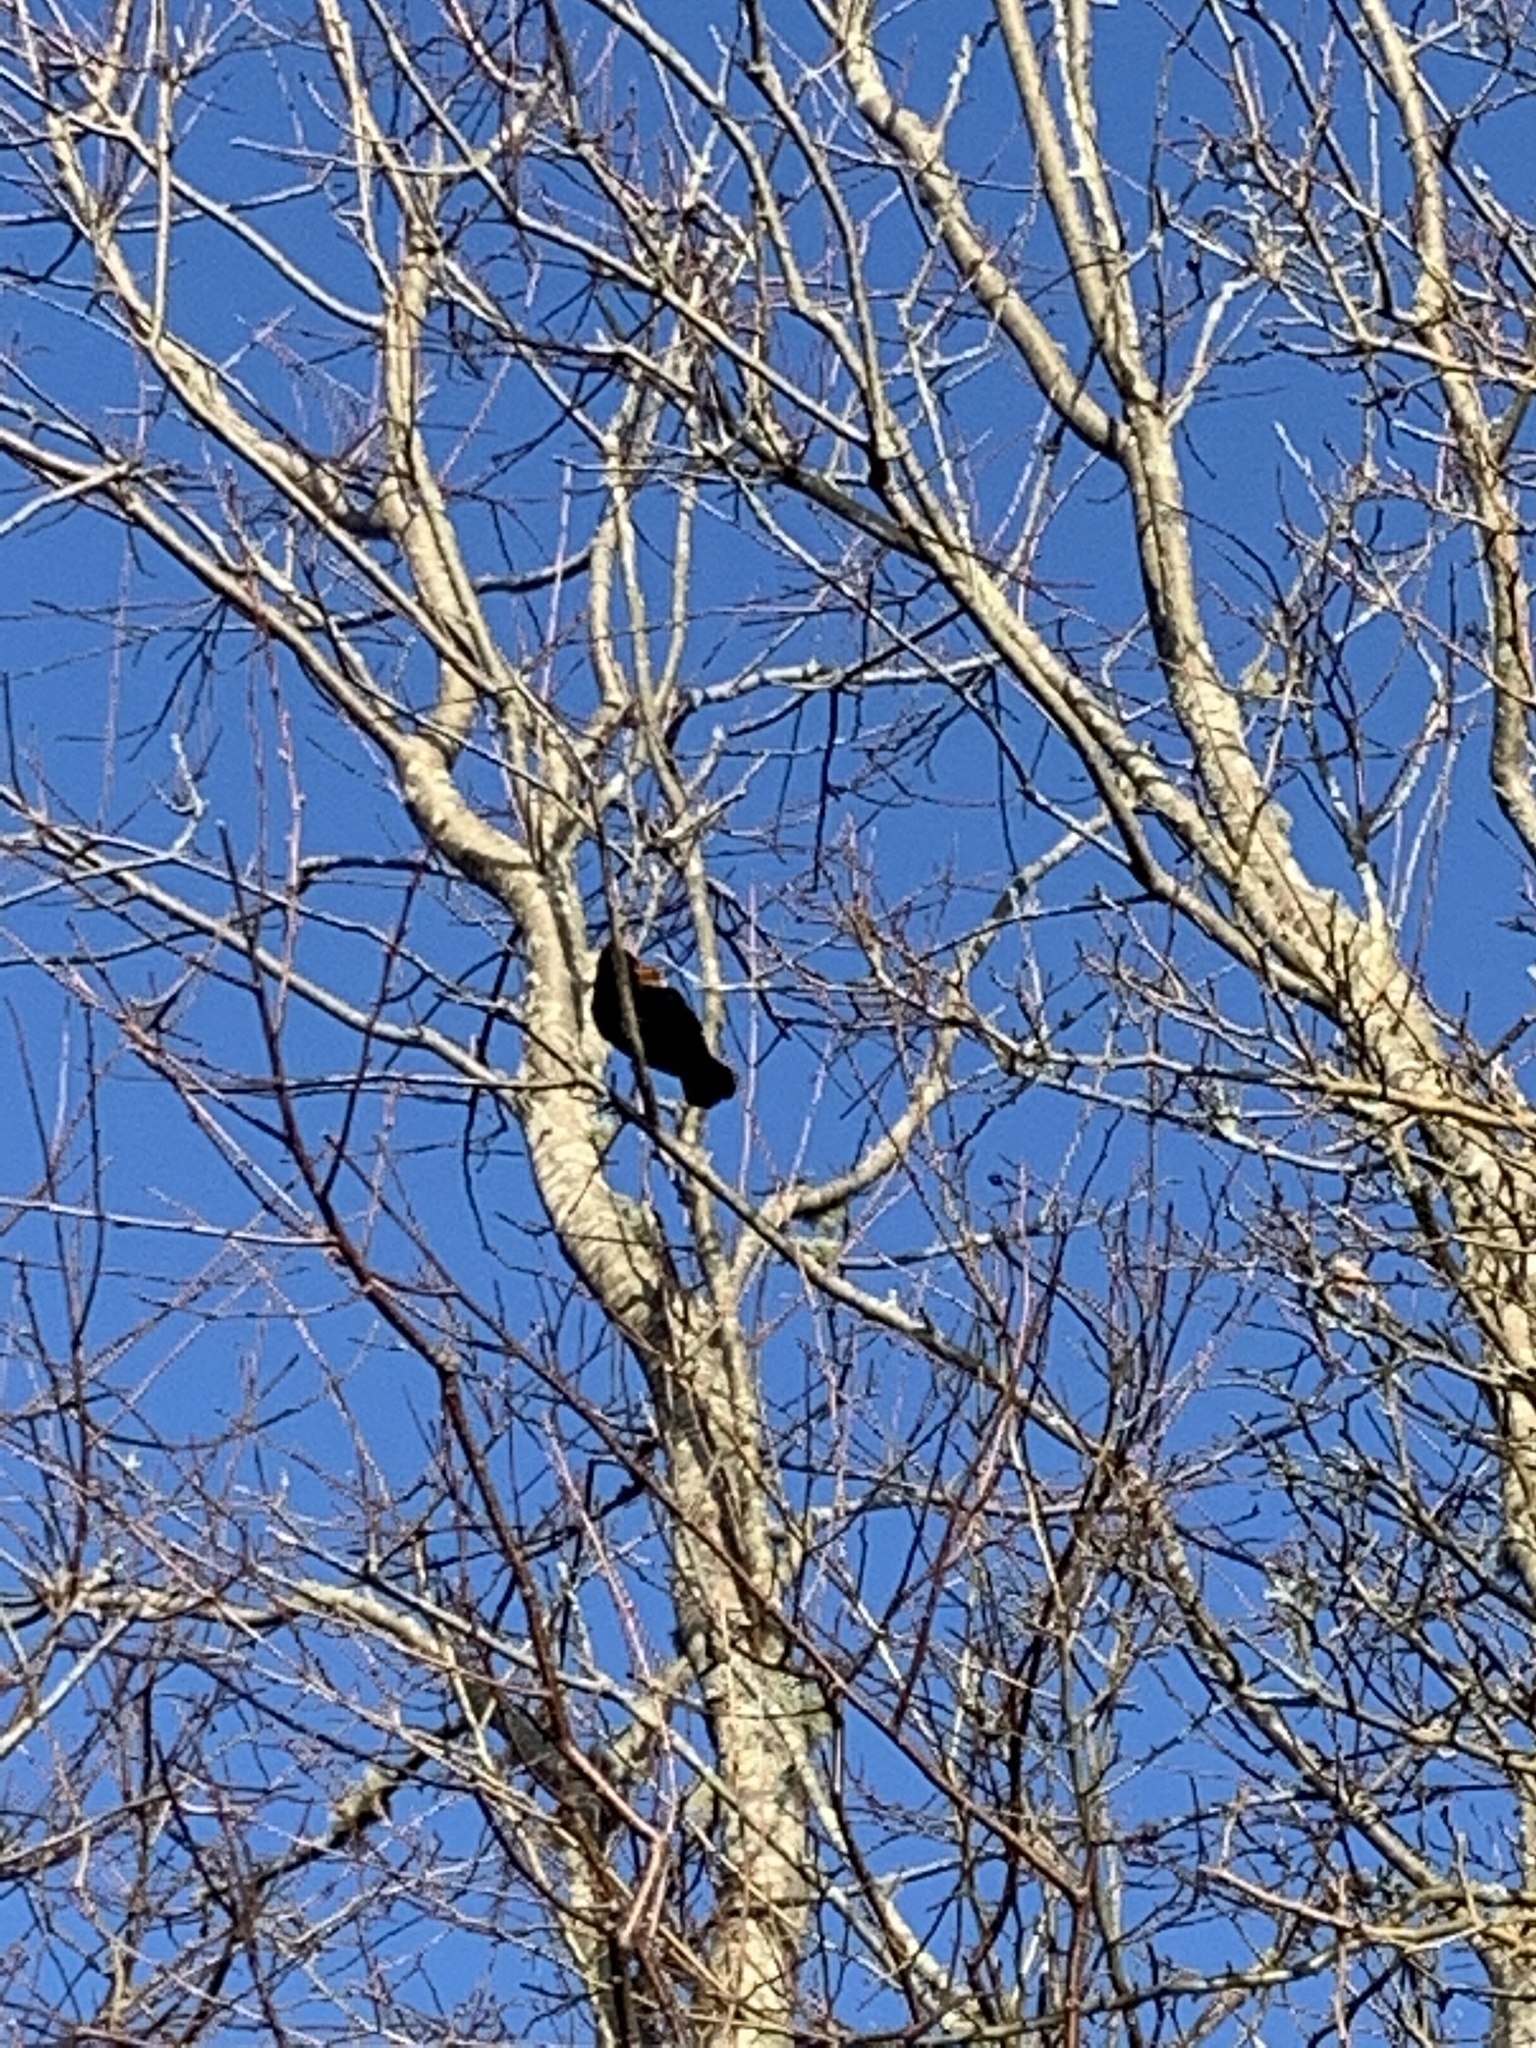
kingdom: Animalia
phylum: Chordata
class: Aves
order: Passeriformes
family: Icteridae
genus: Agelaius
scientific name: Agelaius phoeniceus
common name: Red-winged blackbird
